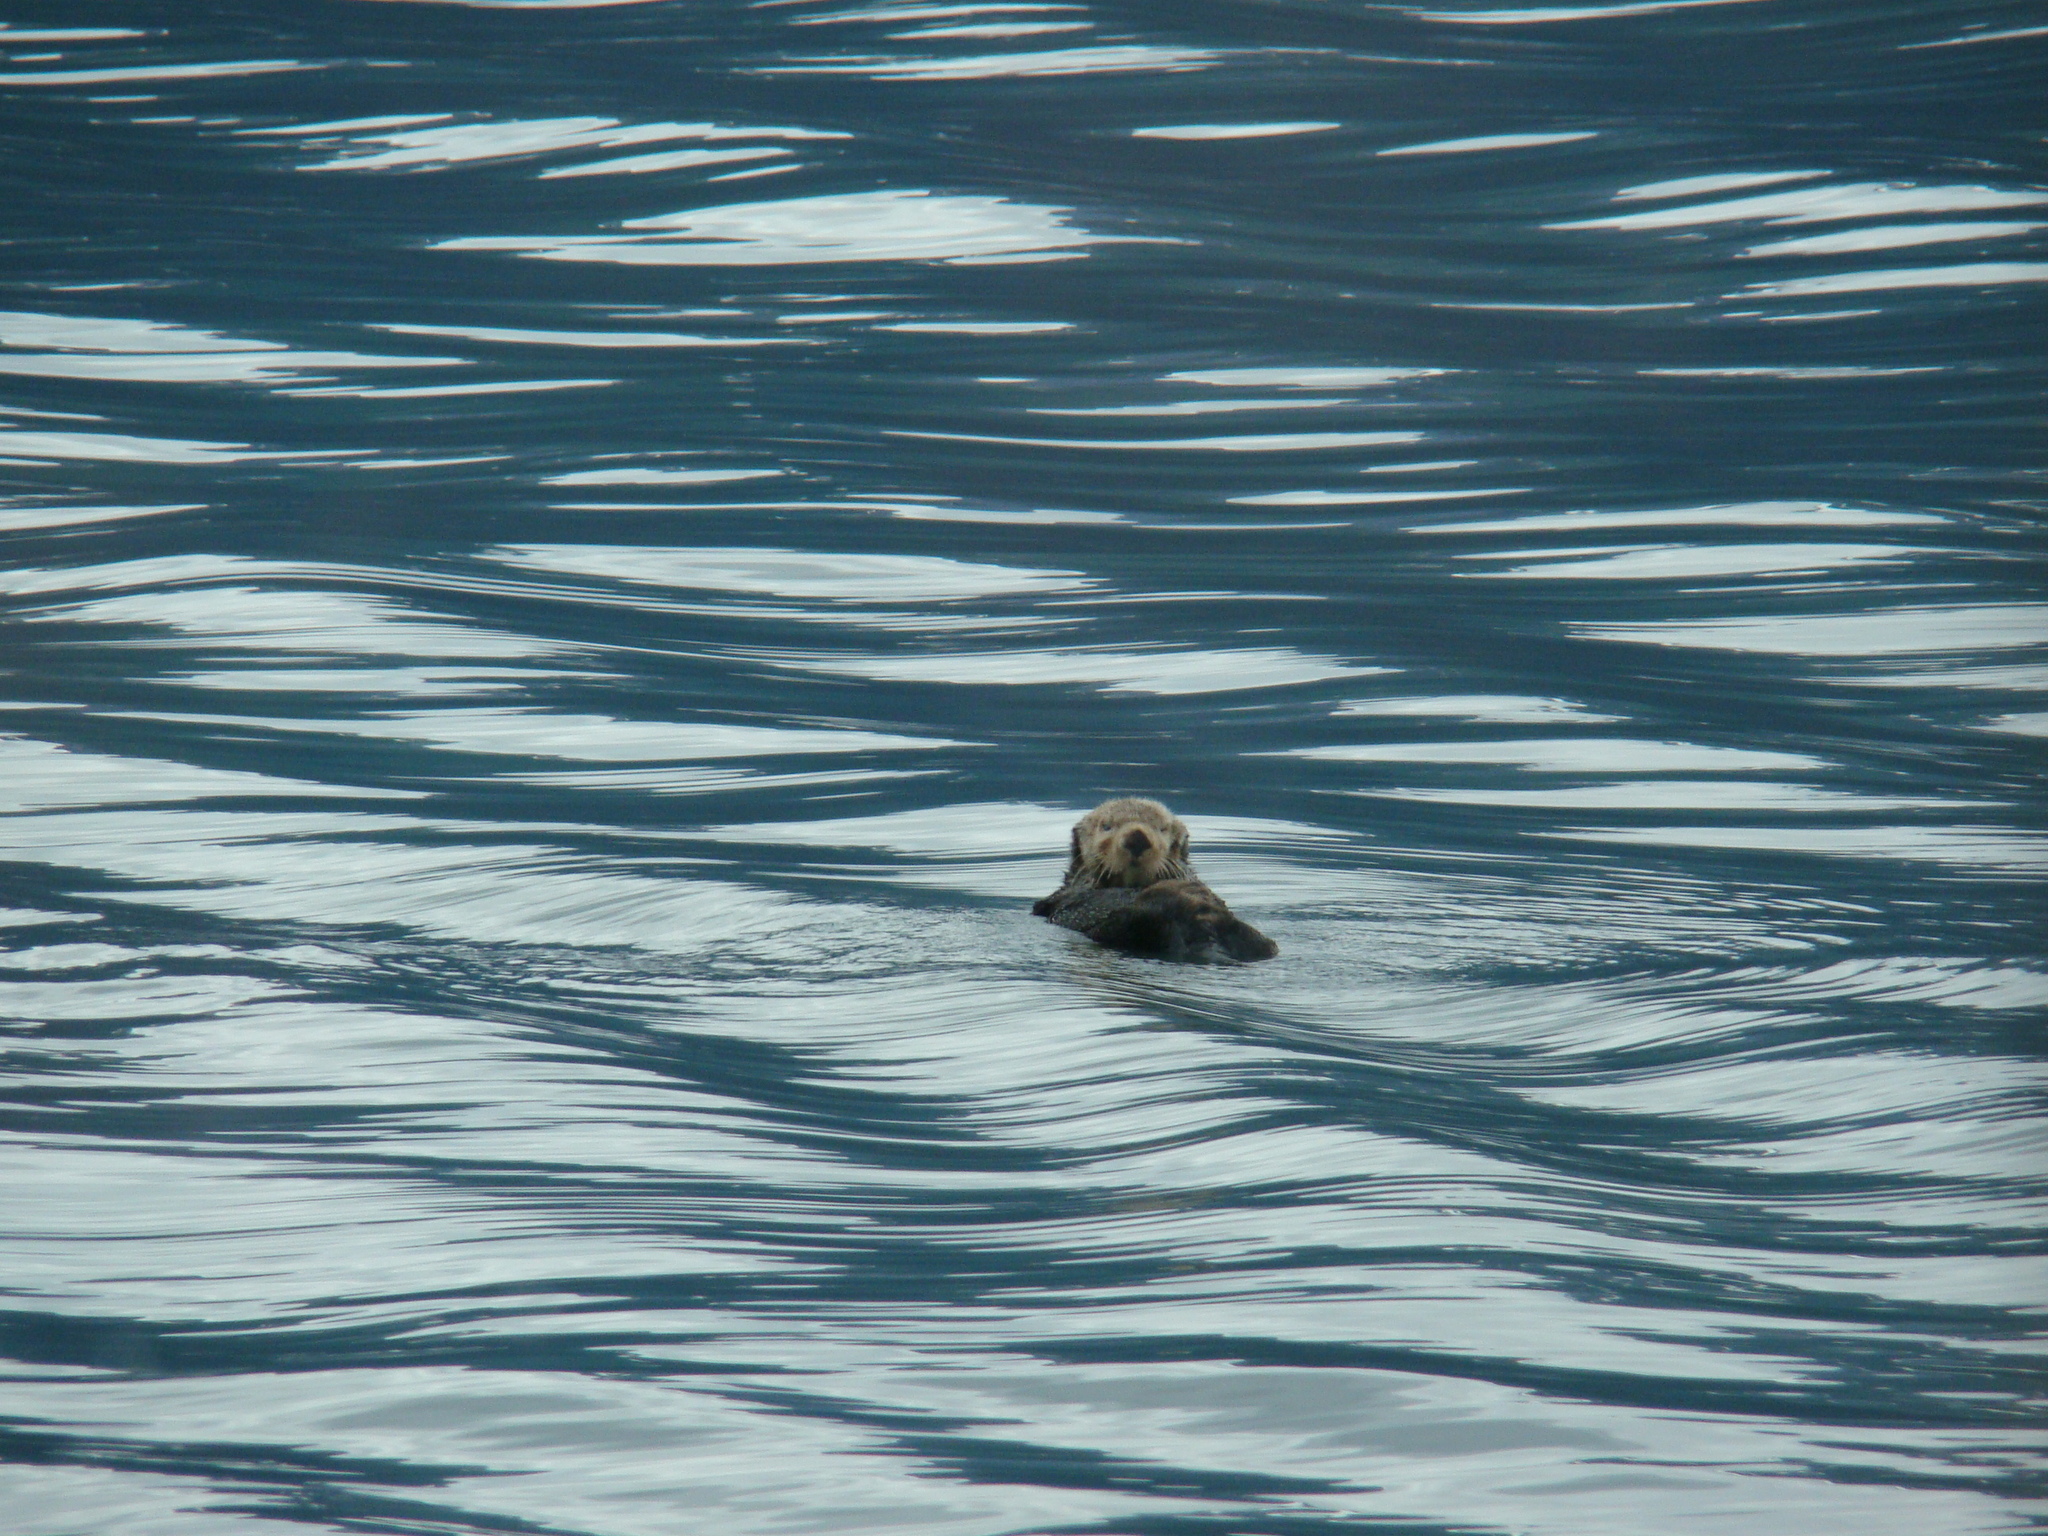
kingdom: Animalia
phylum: Chordata
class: Mammalia
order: Carnivora
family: Mustelidae
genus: Enhydra
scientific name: Enhydra lutris
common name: Sea otter
